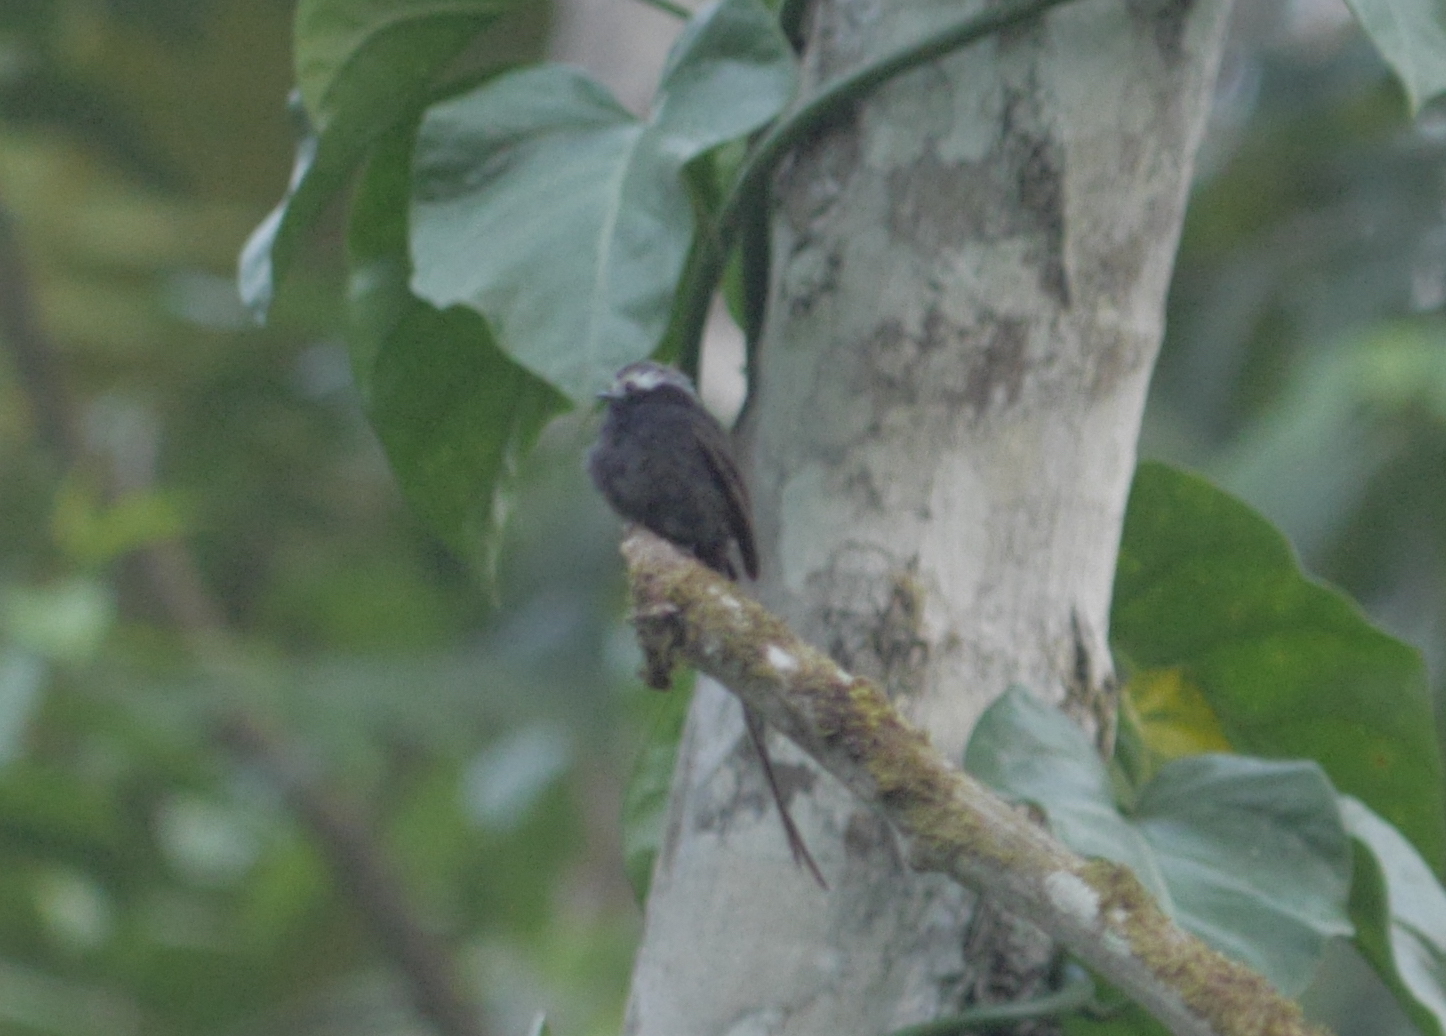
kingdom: Animalia
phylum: Chordata
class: Aves
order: Passeriformes
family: Tyrannidae
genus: Colonia
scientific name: Colonia colonus
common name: Long-tailed tyrant
